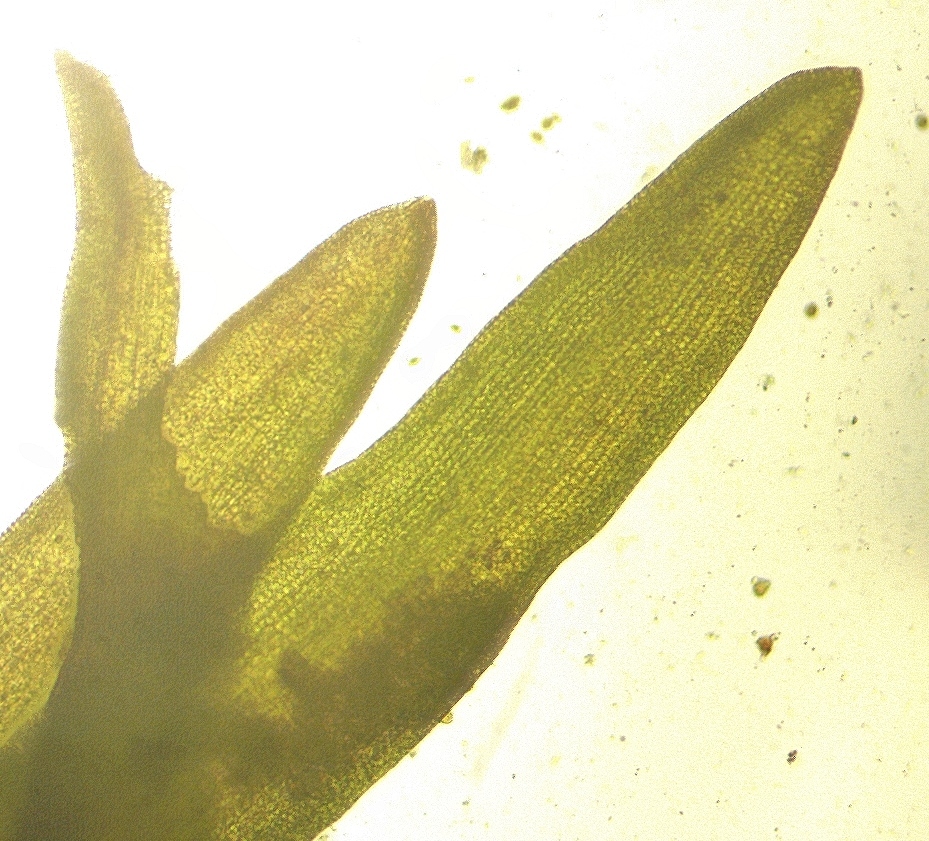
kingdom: Plantae
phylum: Bryophyta
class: Bryopsida
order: Grimmiales
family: Ptychomitriaceae
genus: Ptychomitrium
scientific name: Ptychomitrium incurvum
